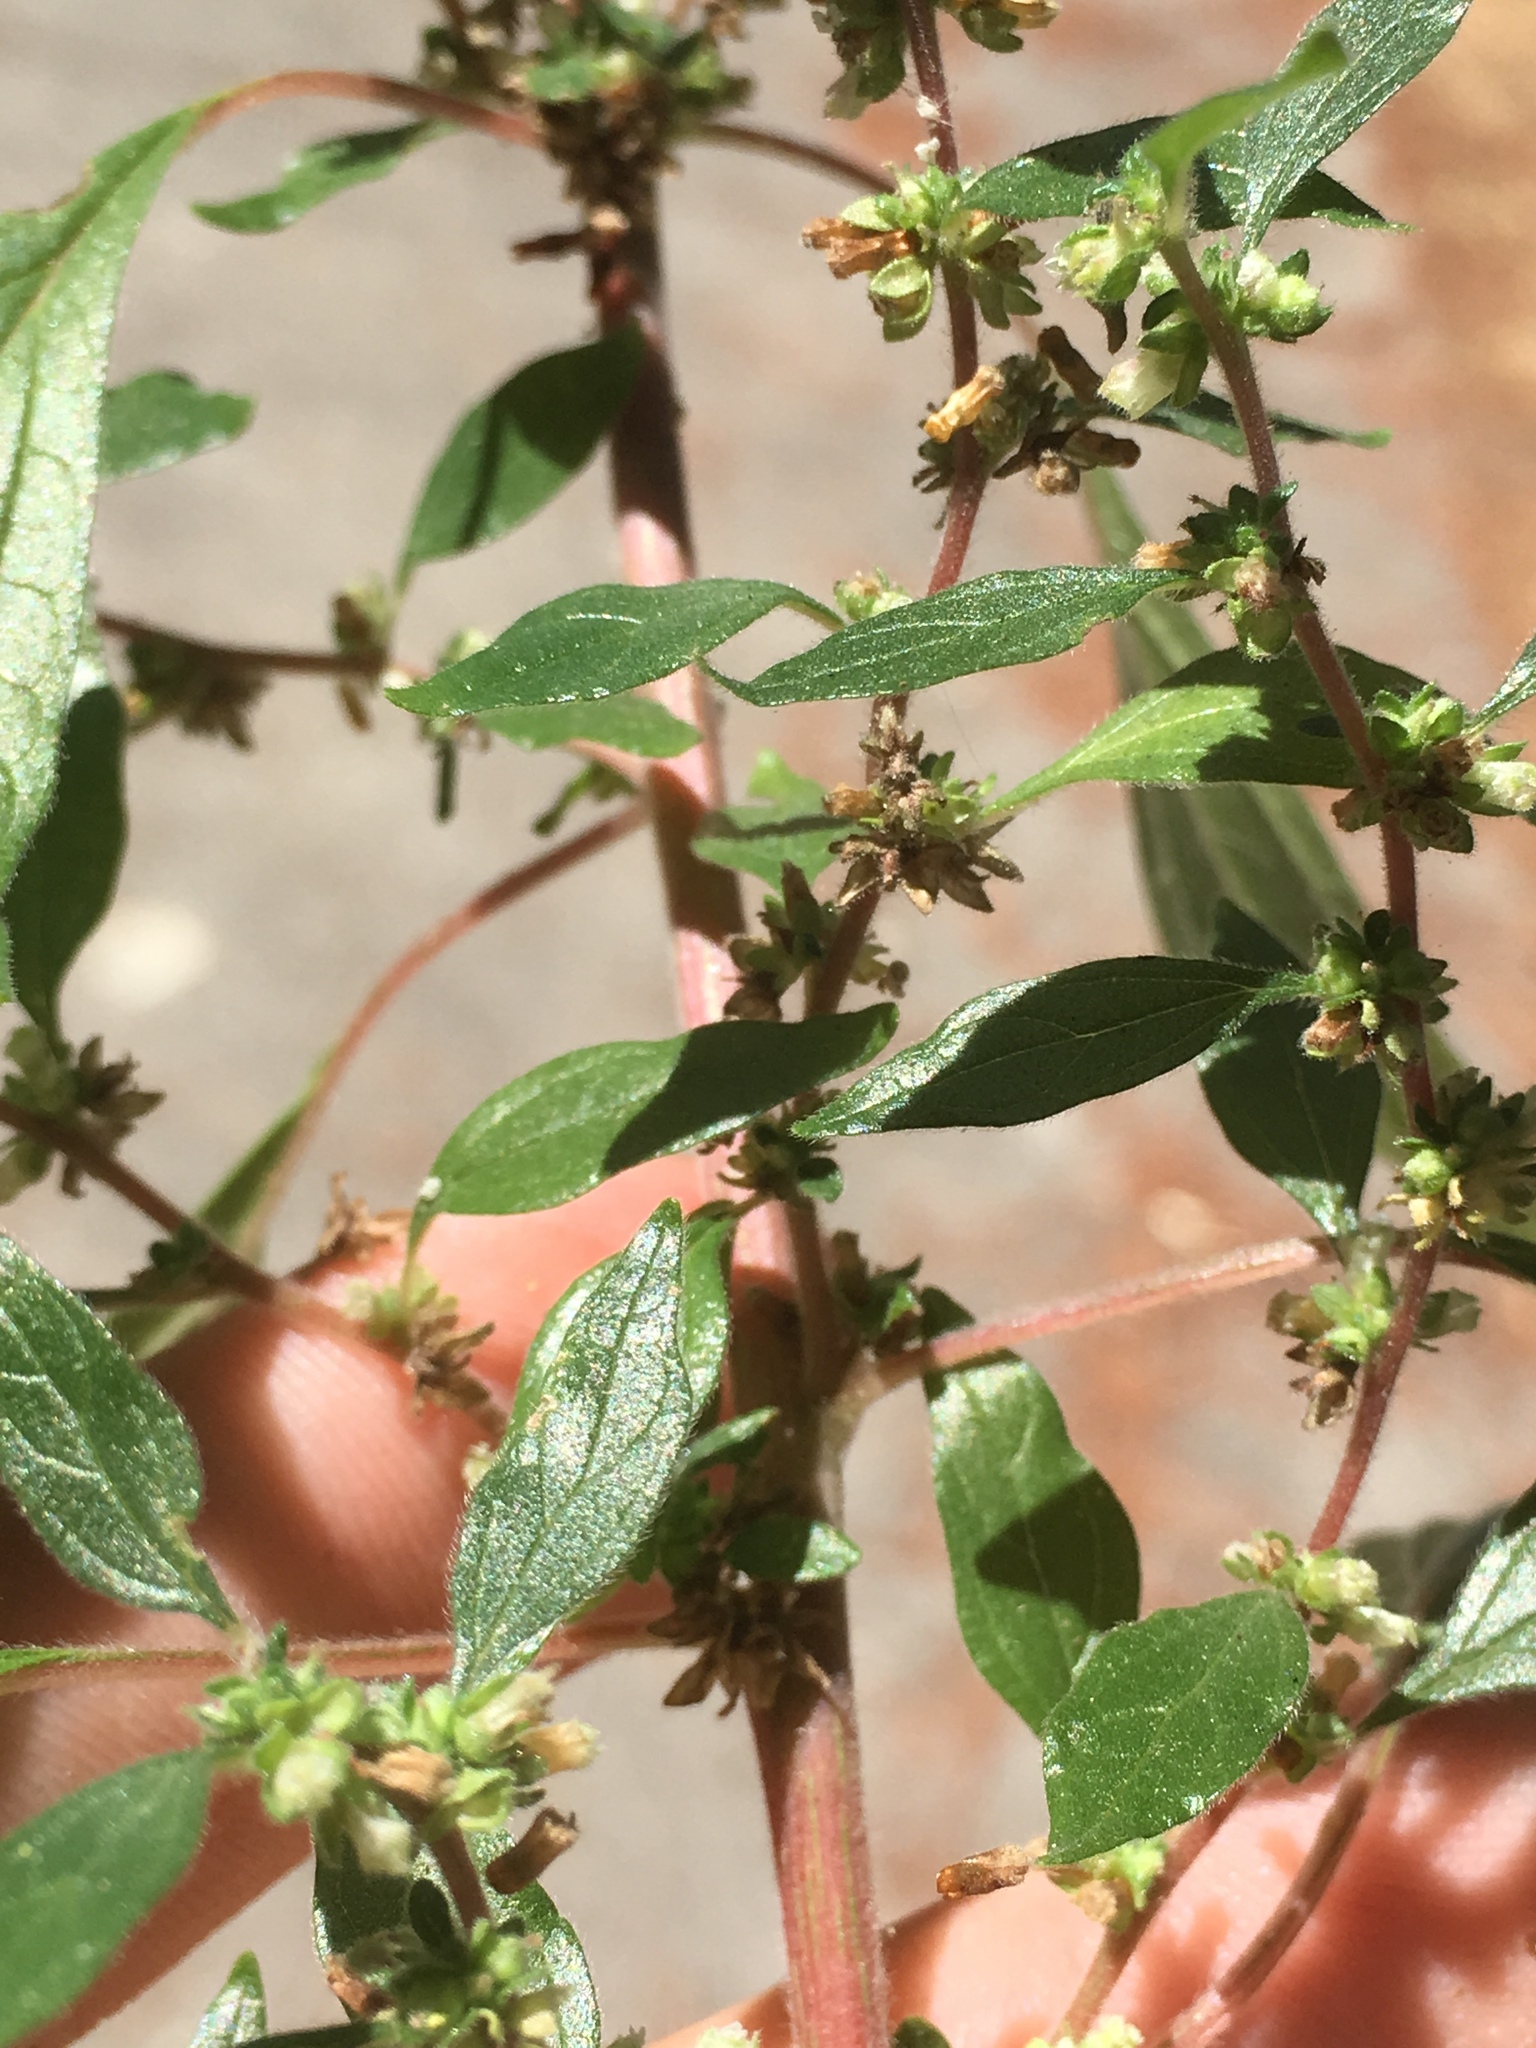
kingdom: Plantae
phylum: Tracheophyta
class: Magnoliopsida
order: Rosales
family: Urticaceae
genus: Parietaria
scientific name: Parietaria judaica
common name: Pellitory-of-the-wall
